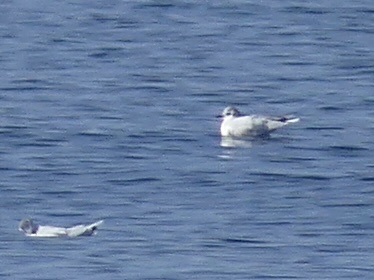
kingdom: Animalia
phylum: Chordata
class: Aves
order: Charadriiformes
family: Laridae
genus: Hydrocoloeus
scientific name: Hydrocoloeus minutus
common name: Little gull
